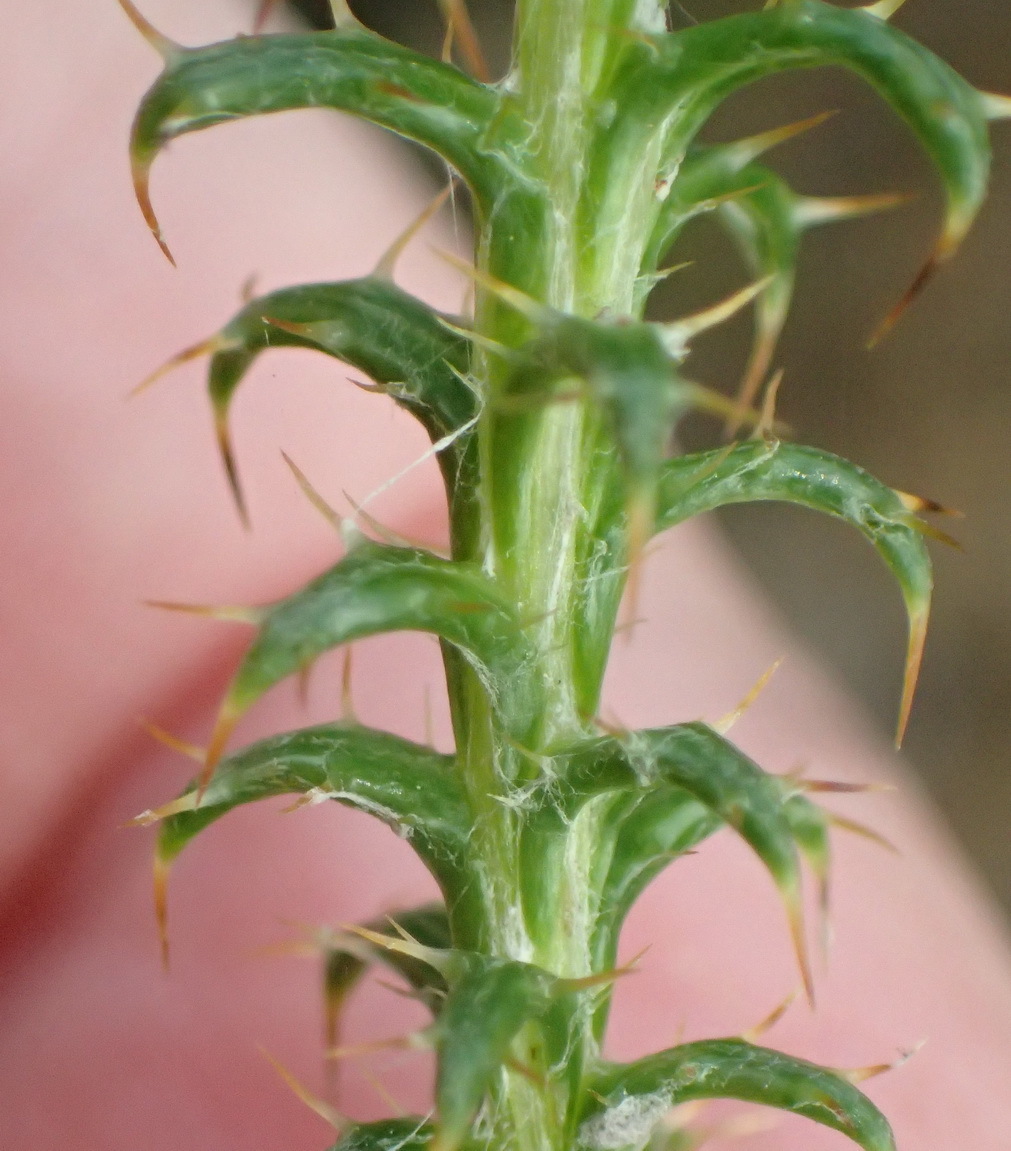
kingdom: Plantae
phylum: Tracheophyta
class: Magnoliopsida
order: Asterales
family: Asteraceae
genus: Cullumia
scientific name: Cullumia decurrens
